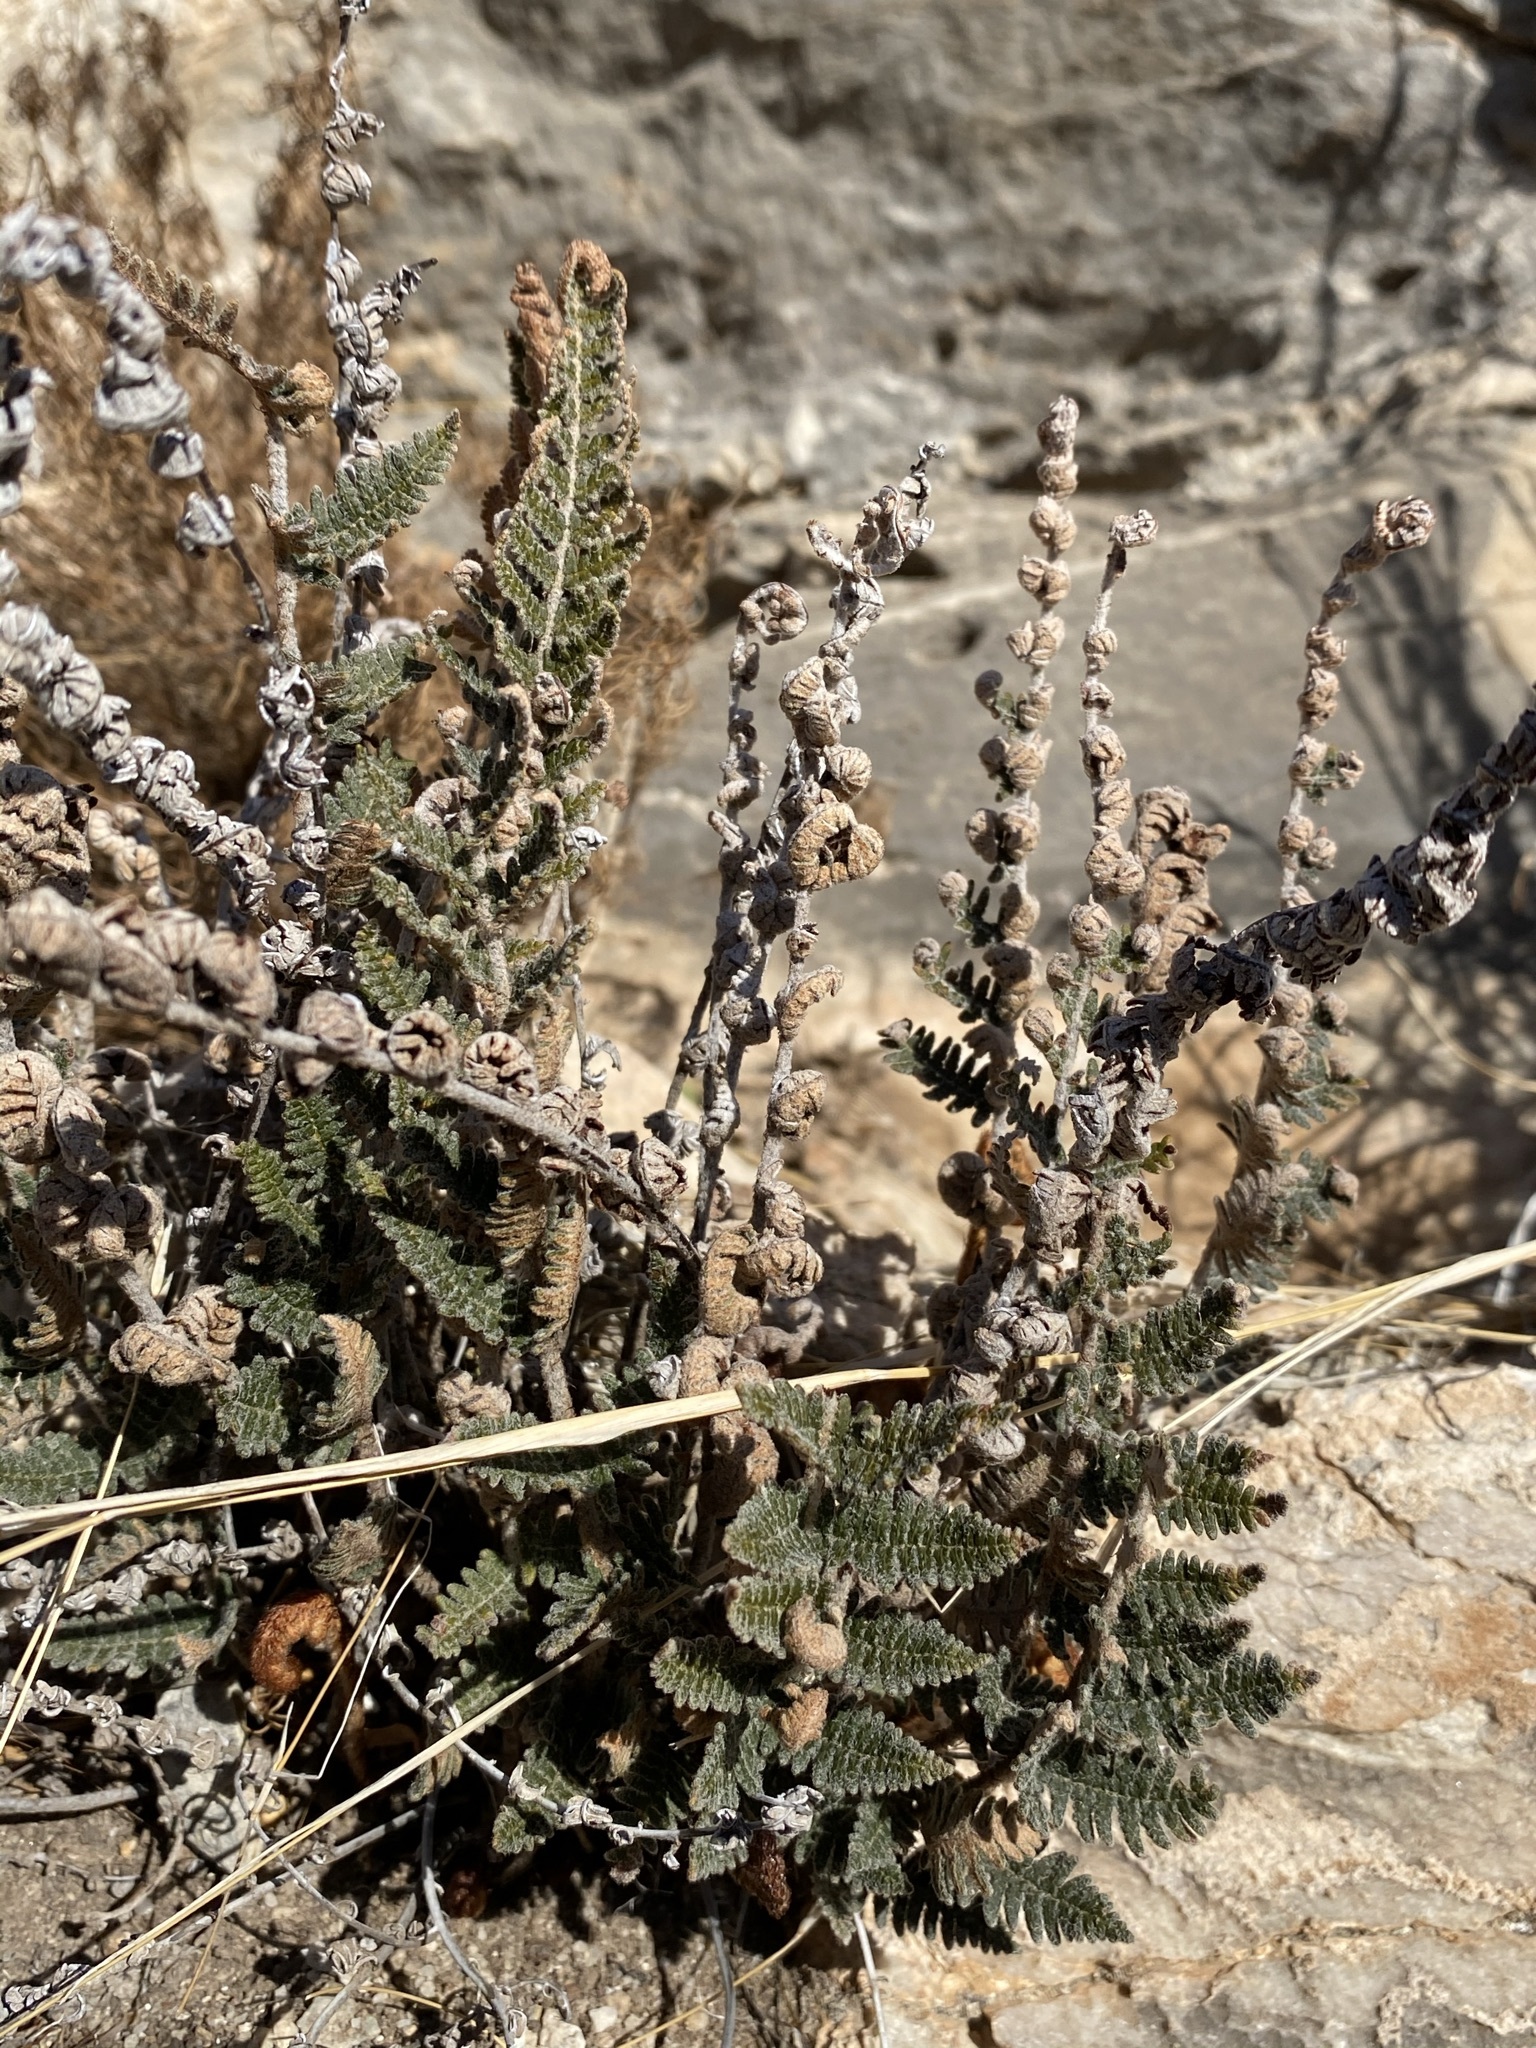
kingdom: Plantae
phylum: Tracheophyta
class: Polypodiopsida
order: Polypodiales
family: Pteridaceae
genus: Notholaena
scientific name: Notholaena aschenborniana
